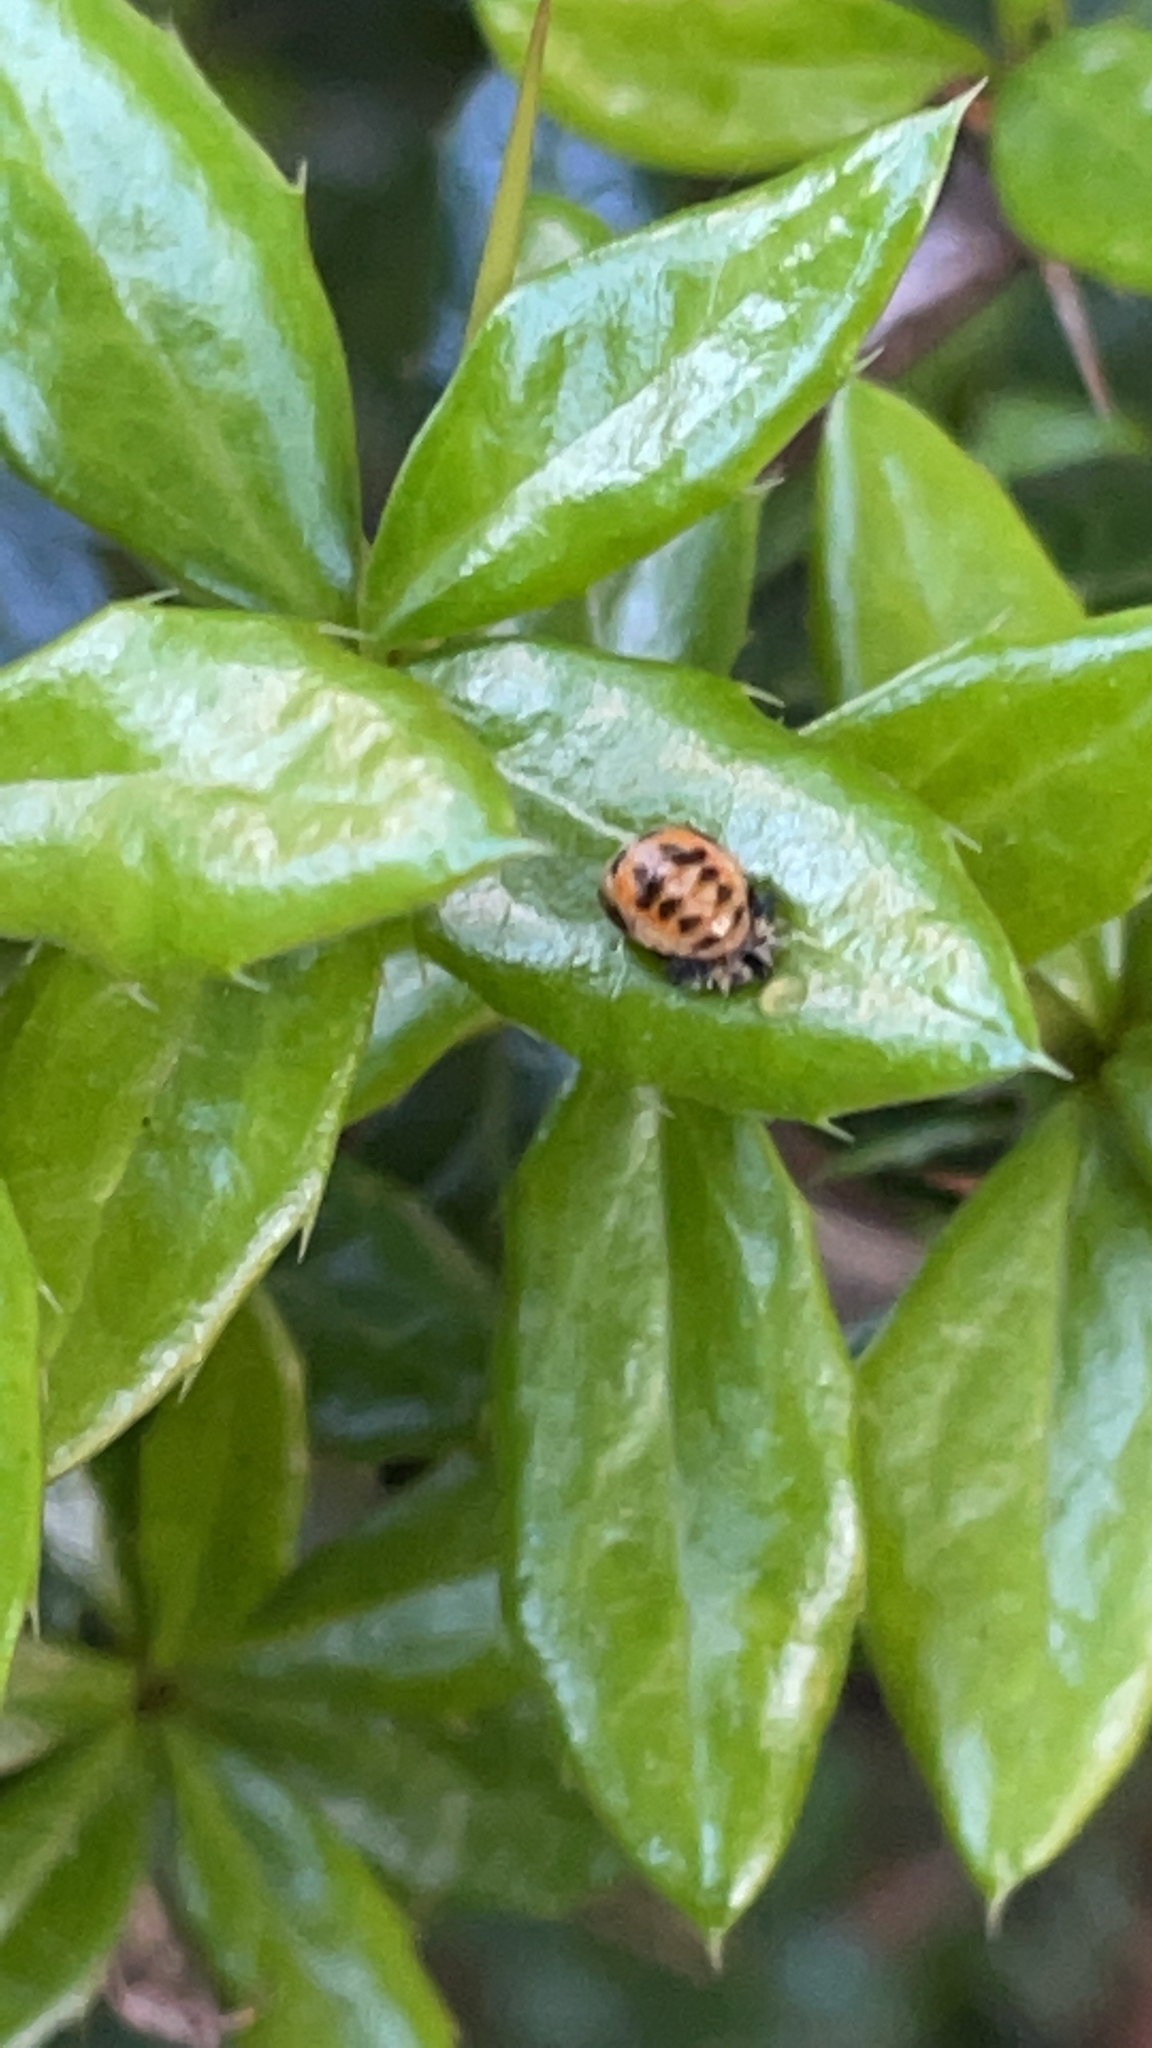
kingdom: Animalia
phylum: Arthropoda
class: Insecta
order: Coleoptera
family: Coccinellidae
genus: Harmonia
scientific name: Harmonia axyridis
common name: Harlequin ladybird
